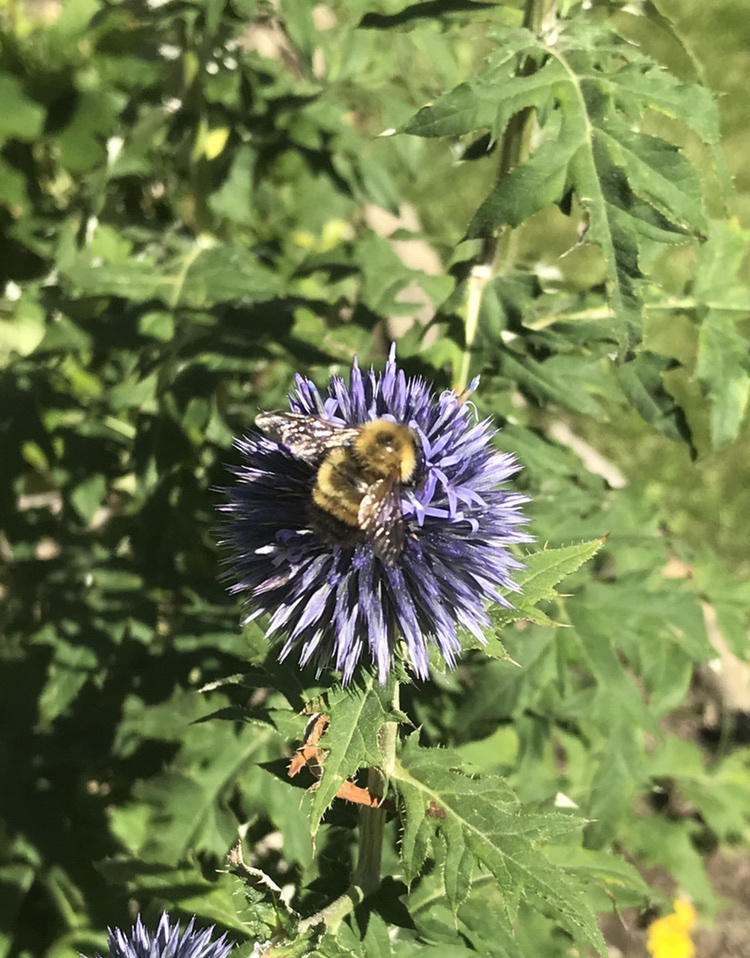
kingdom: Animalia
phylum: Arthropoda
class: Insecta
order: Hymenoptera
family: Apidae
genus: Bombus
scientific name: Bombus perplexus
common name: Confusing bumble bee
